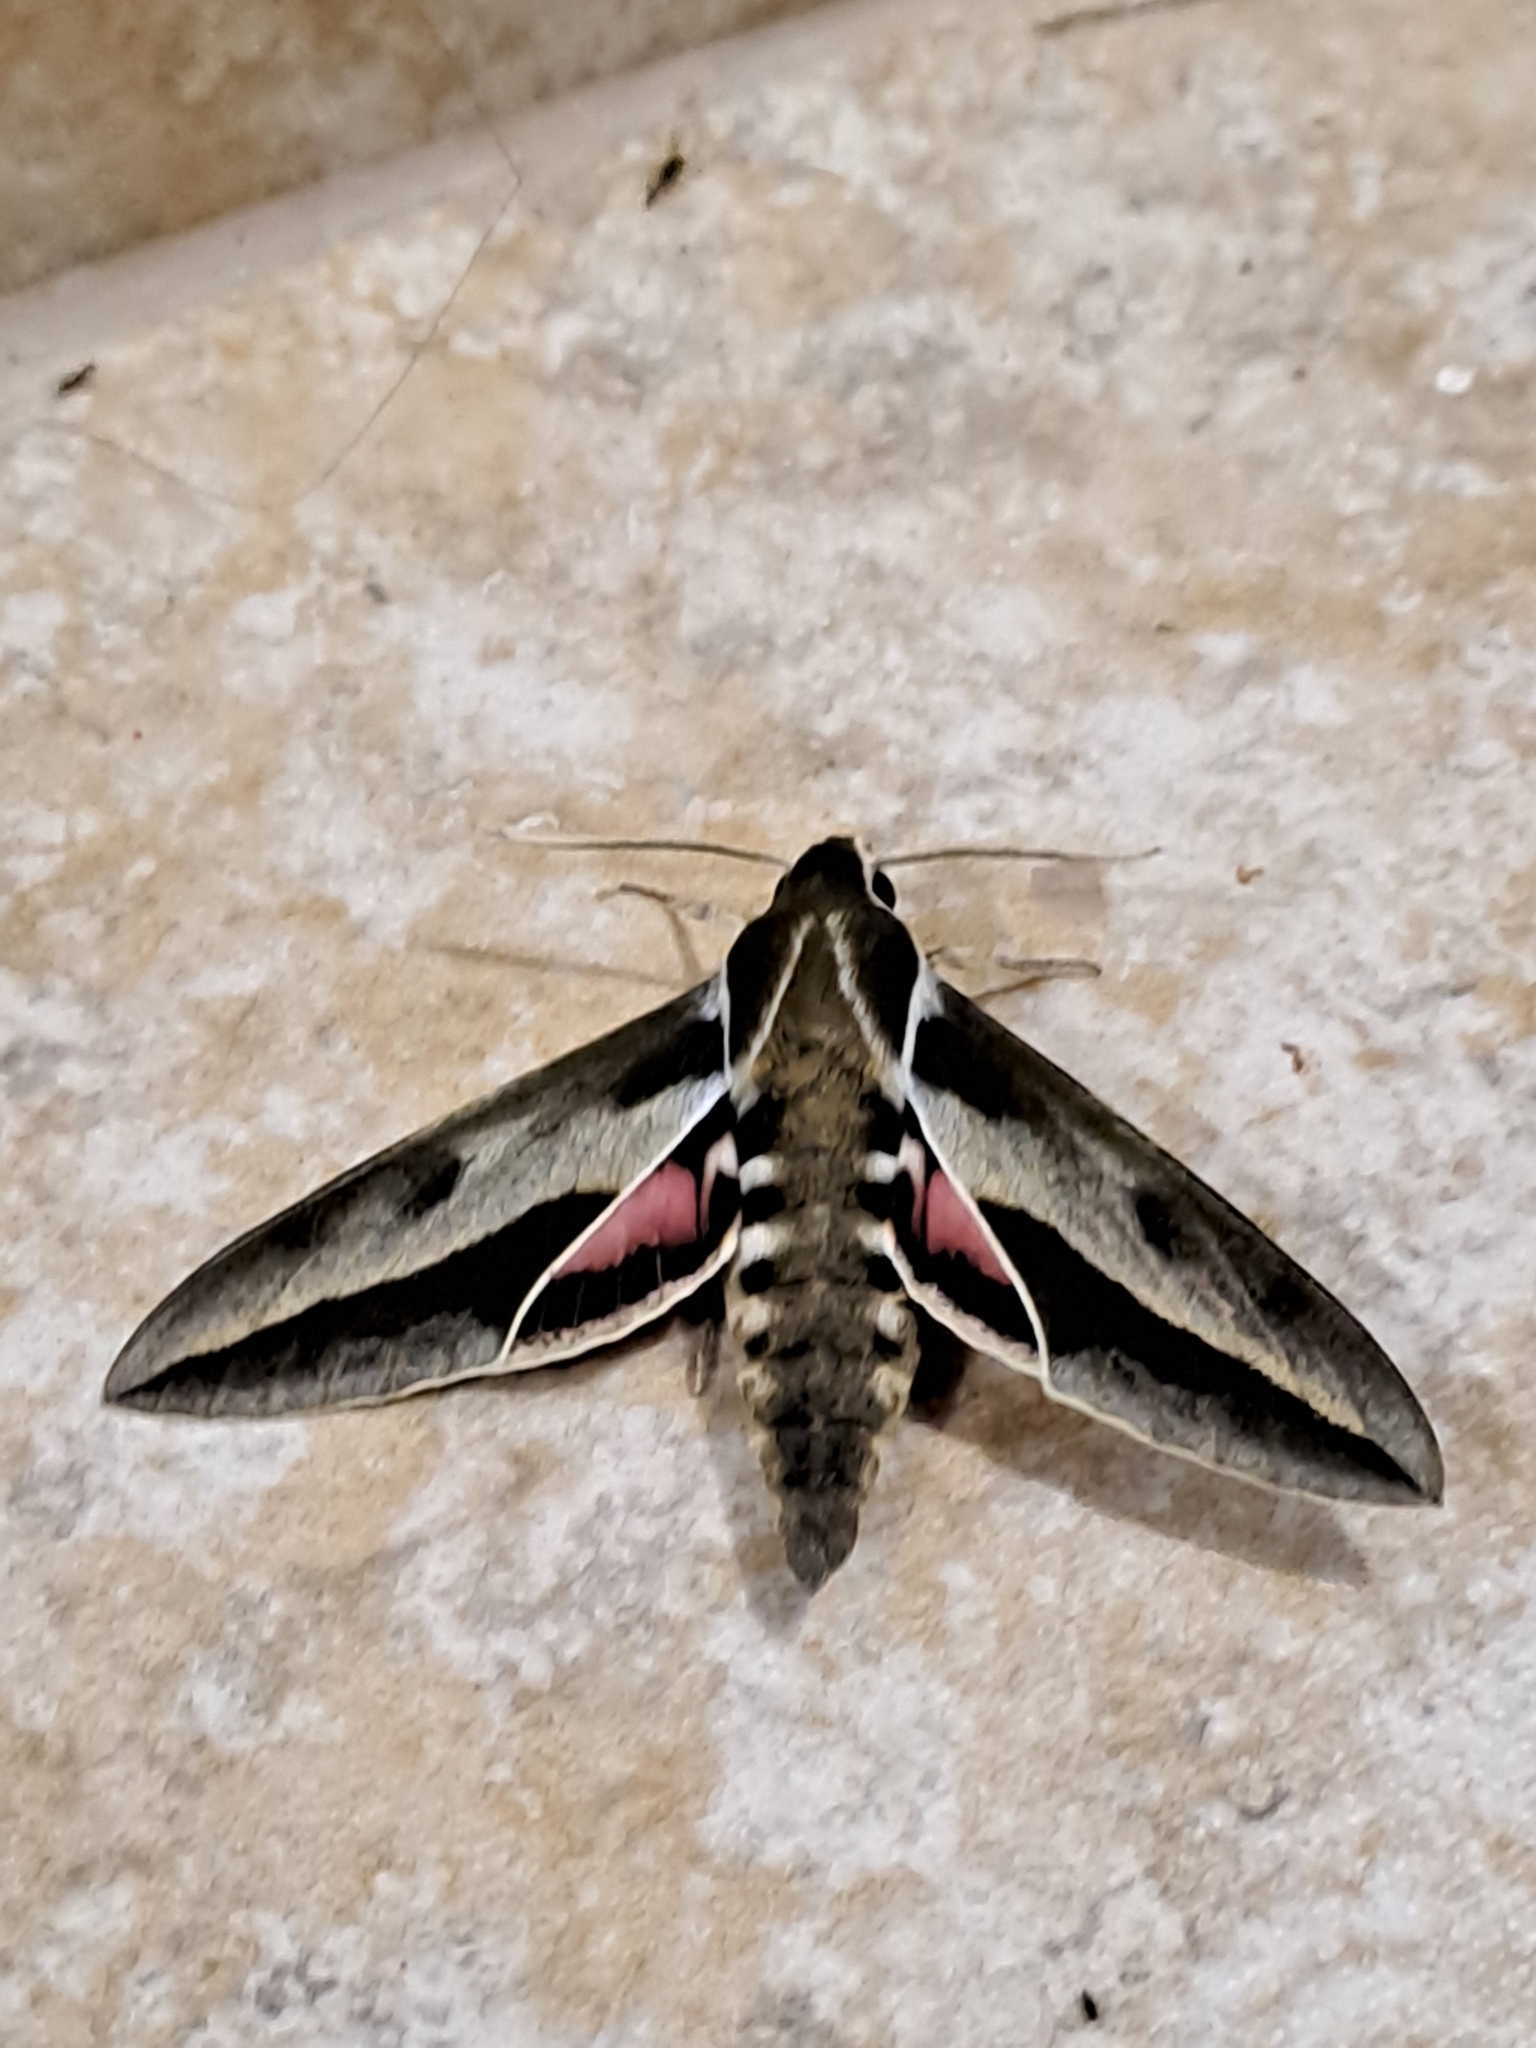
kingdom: Animalia
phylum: Arthropoda
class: Insecta
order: Lepidoptera
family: Sphingidae
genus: Hyles
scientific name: Hyles annei
